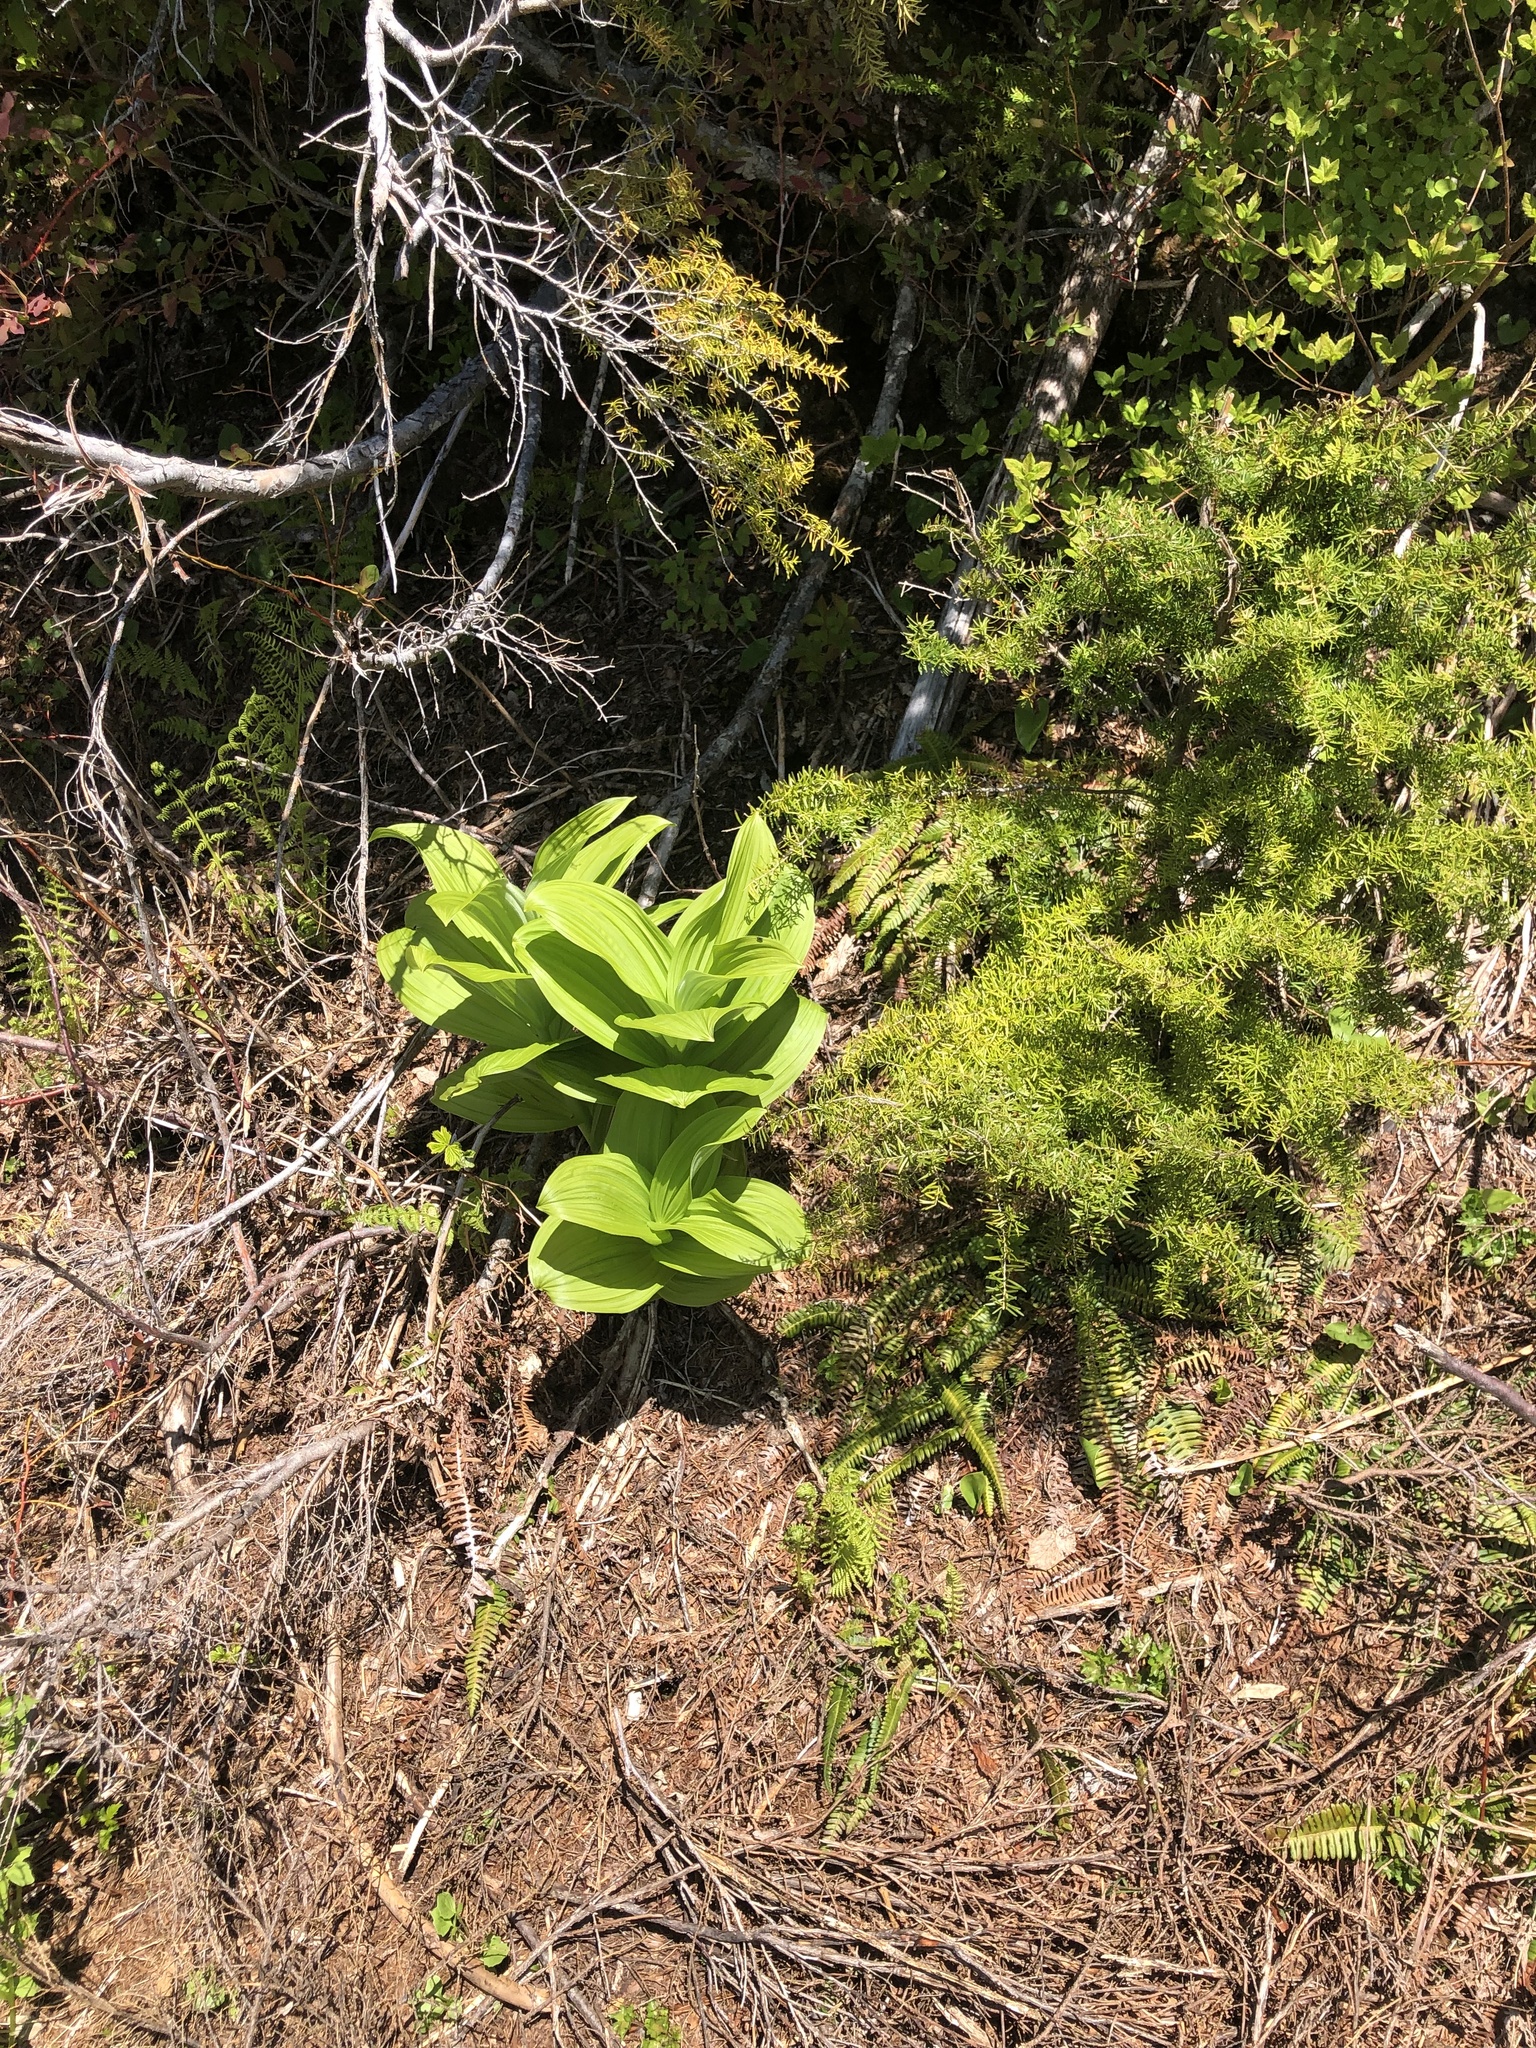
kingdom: Plantae
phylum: Tracheophyta
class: Pinopsida
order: Pinales
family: Pinaceae
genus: Tsuga
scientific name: Tsuga mertensiana
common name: Mountain hemlock
